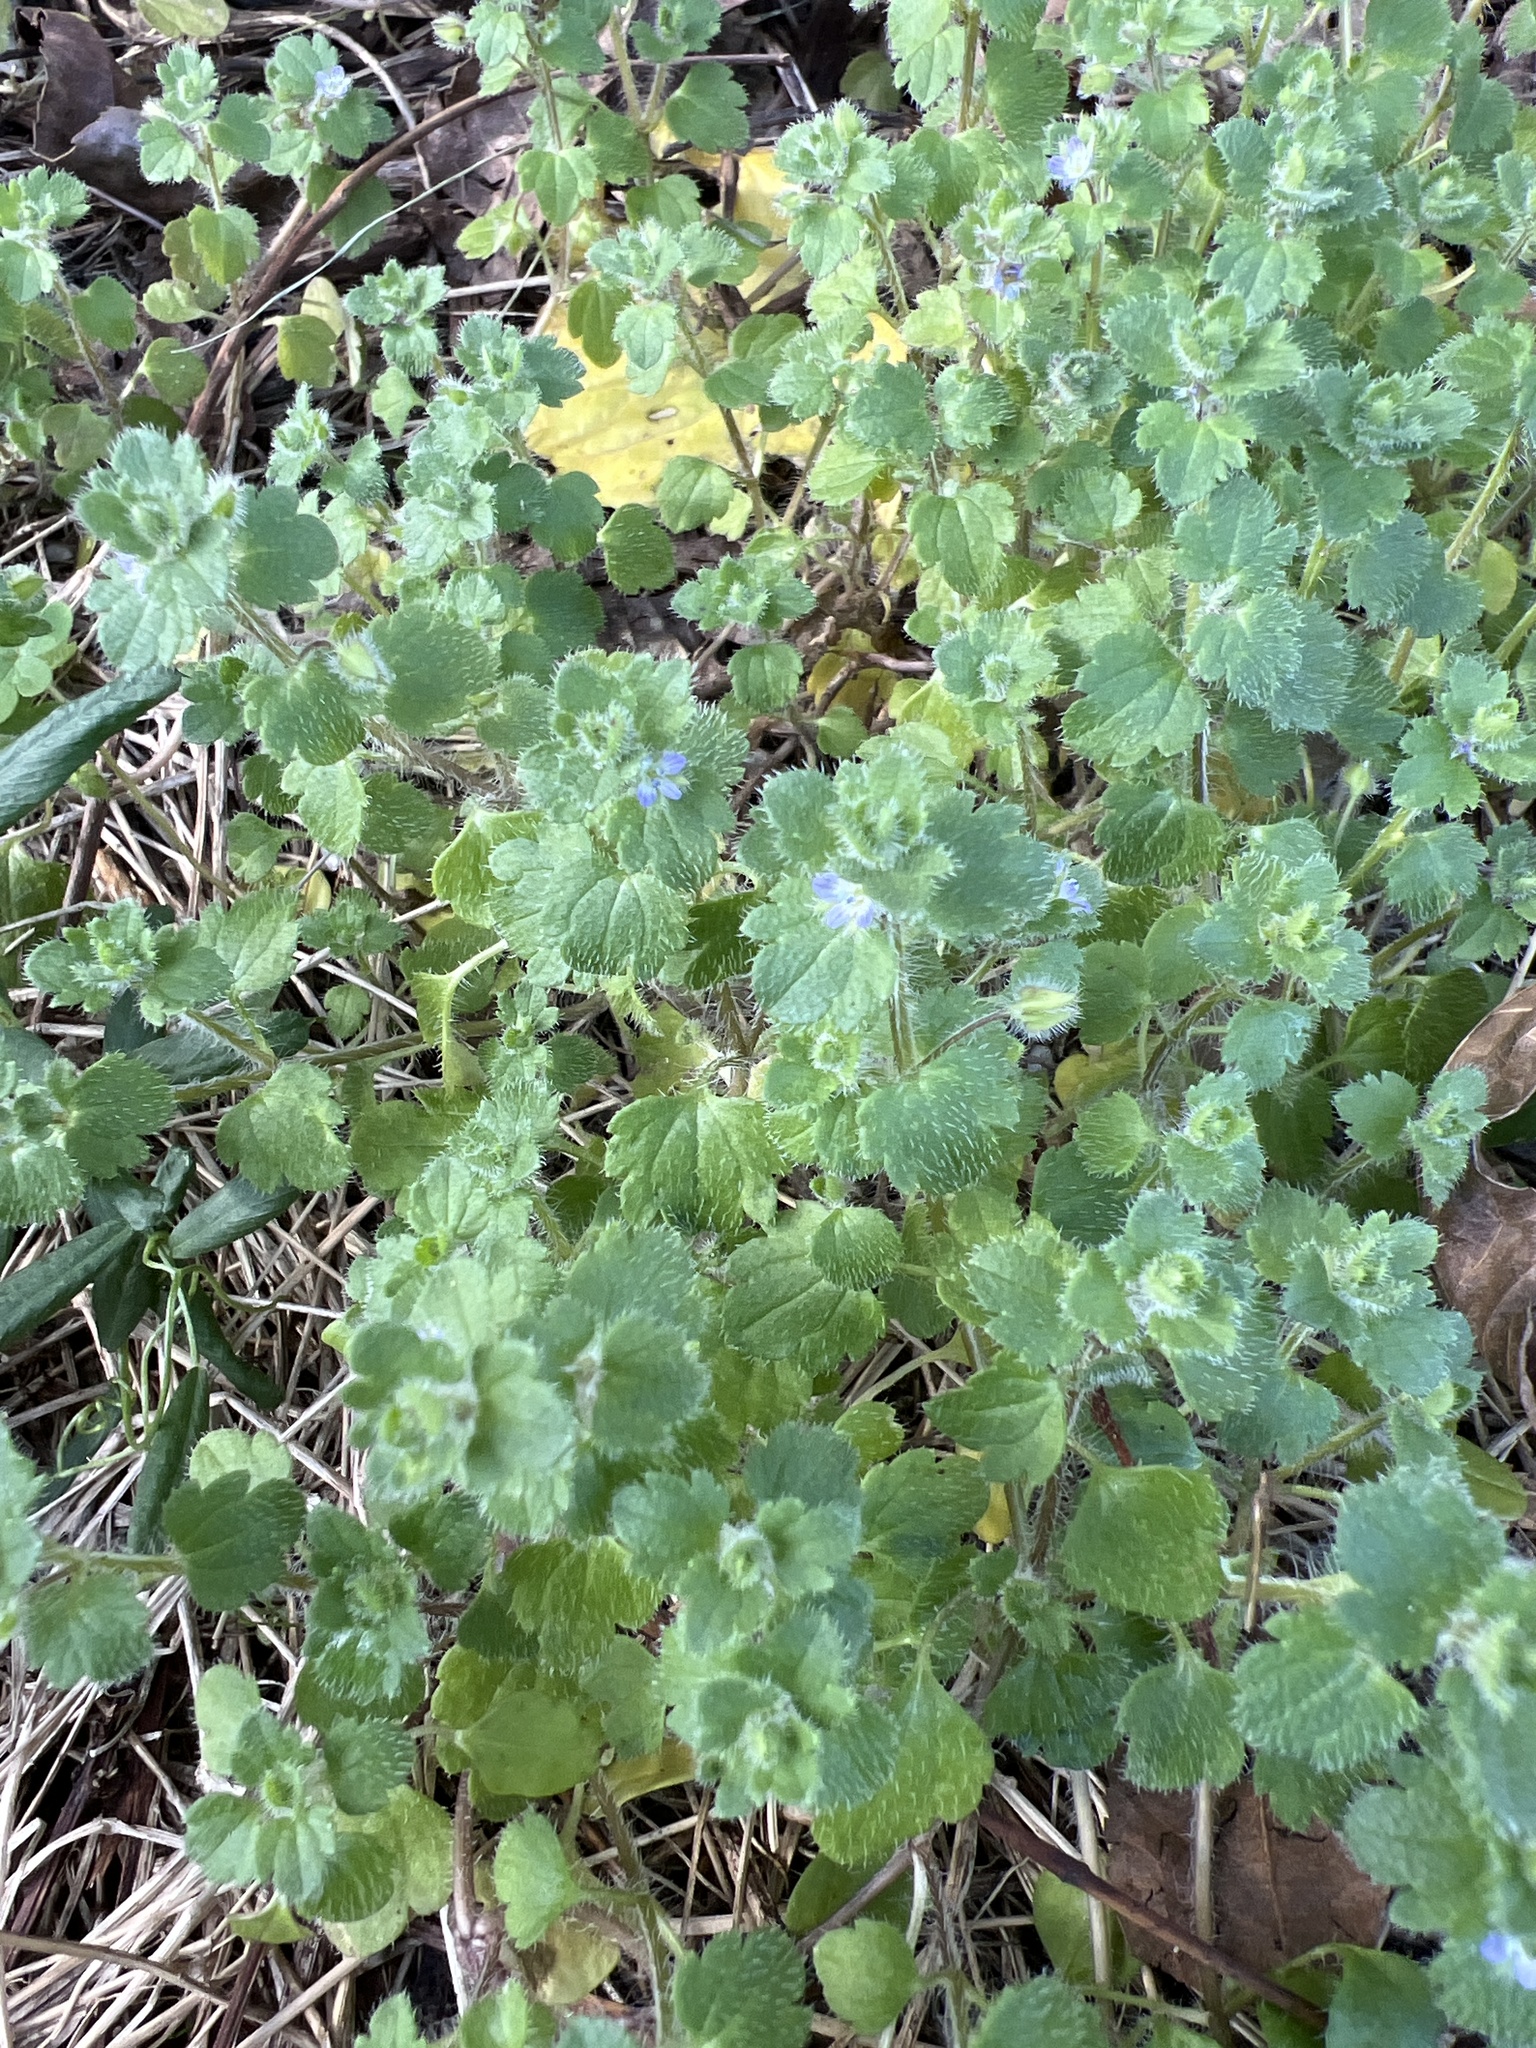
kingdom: Plantae
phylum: Tracheophyta
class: Magnoliopsida
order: Lamiales
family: Plantaginaceae
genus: Veronica
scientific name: Veronica hederifolia
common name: Ivy-leaved speedwell
